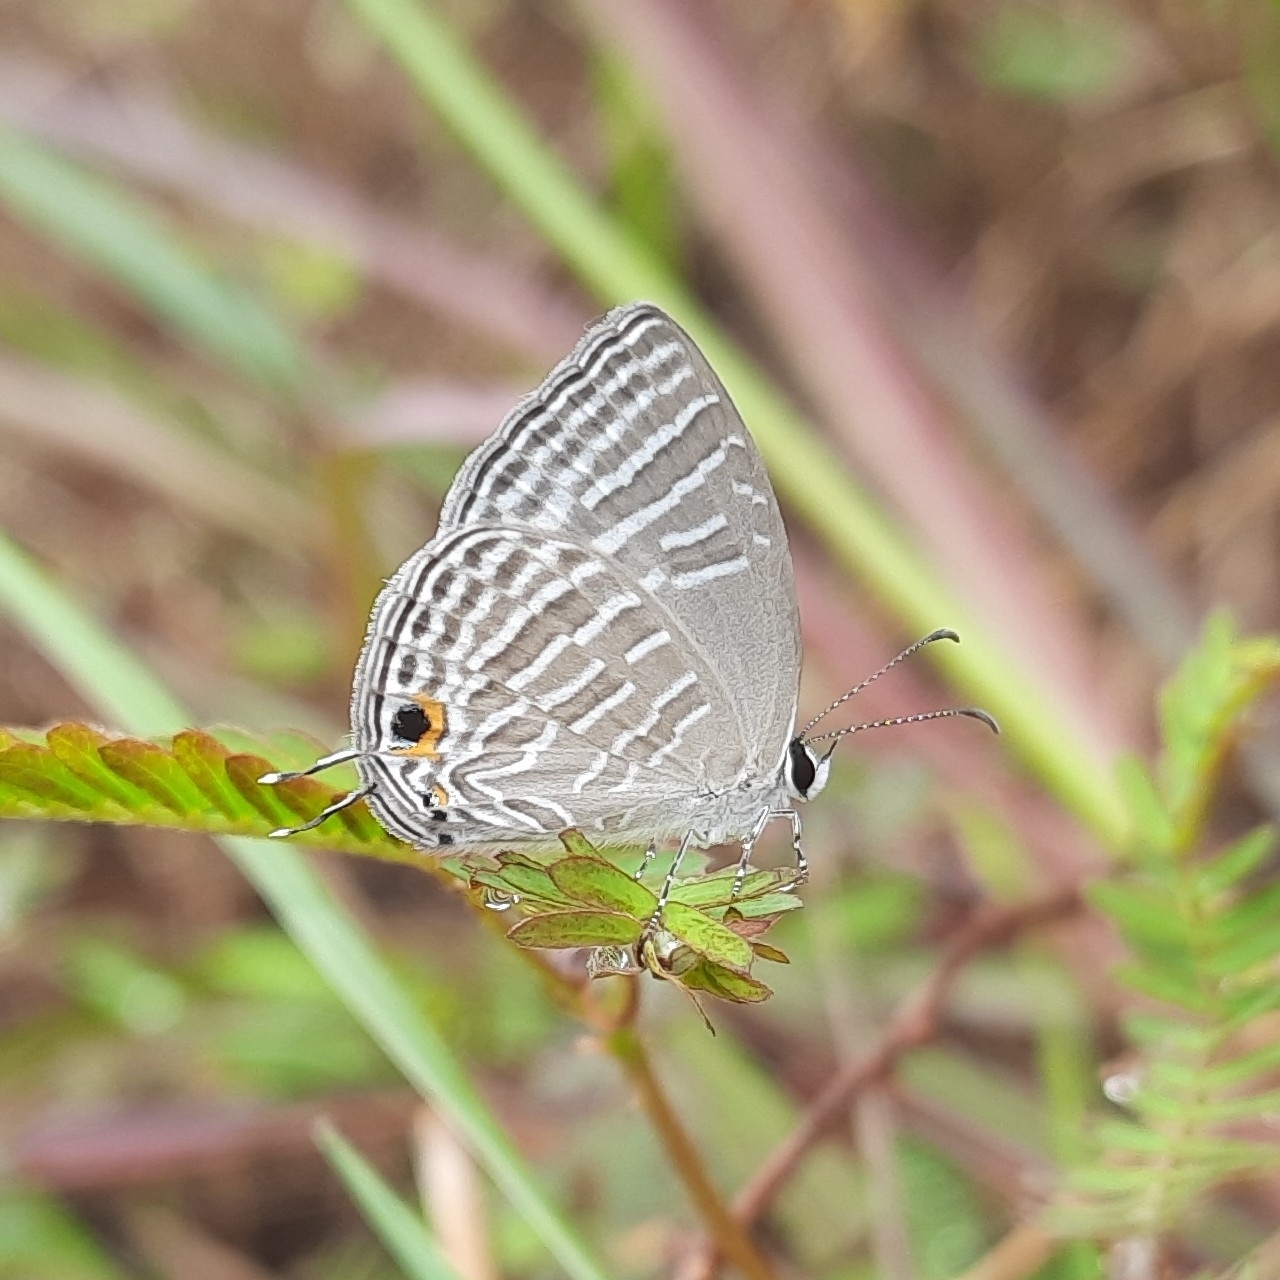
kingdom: Animalia
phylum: Arthropoda
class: Insecta
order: Lepidoptera
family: Lycaenidae
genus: Jamides
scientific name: Jamides celeno
